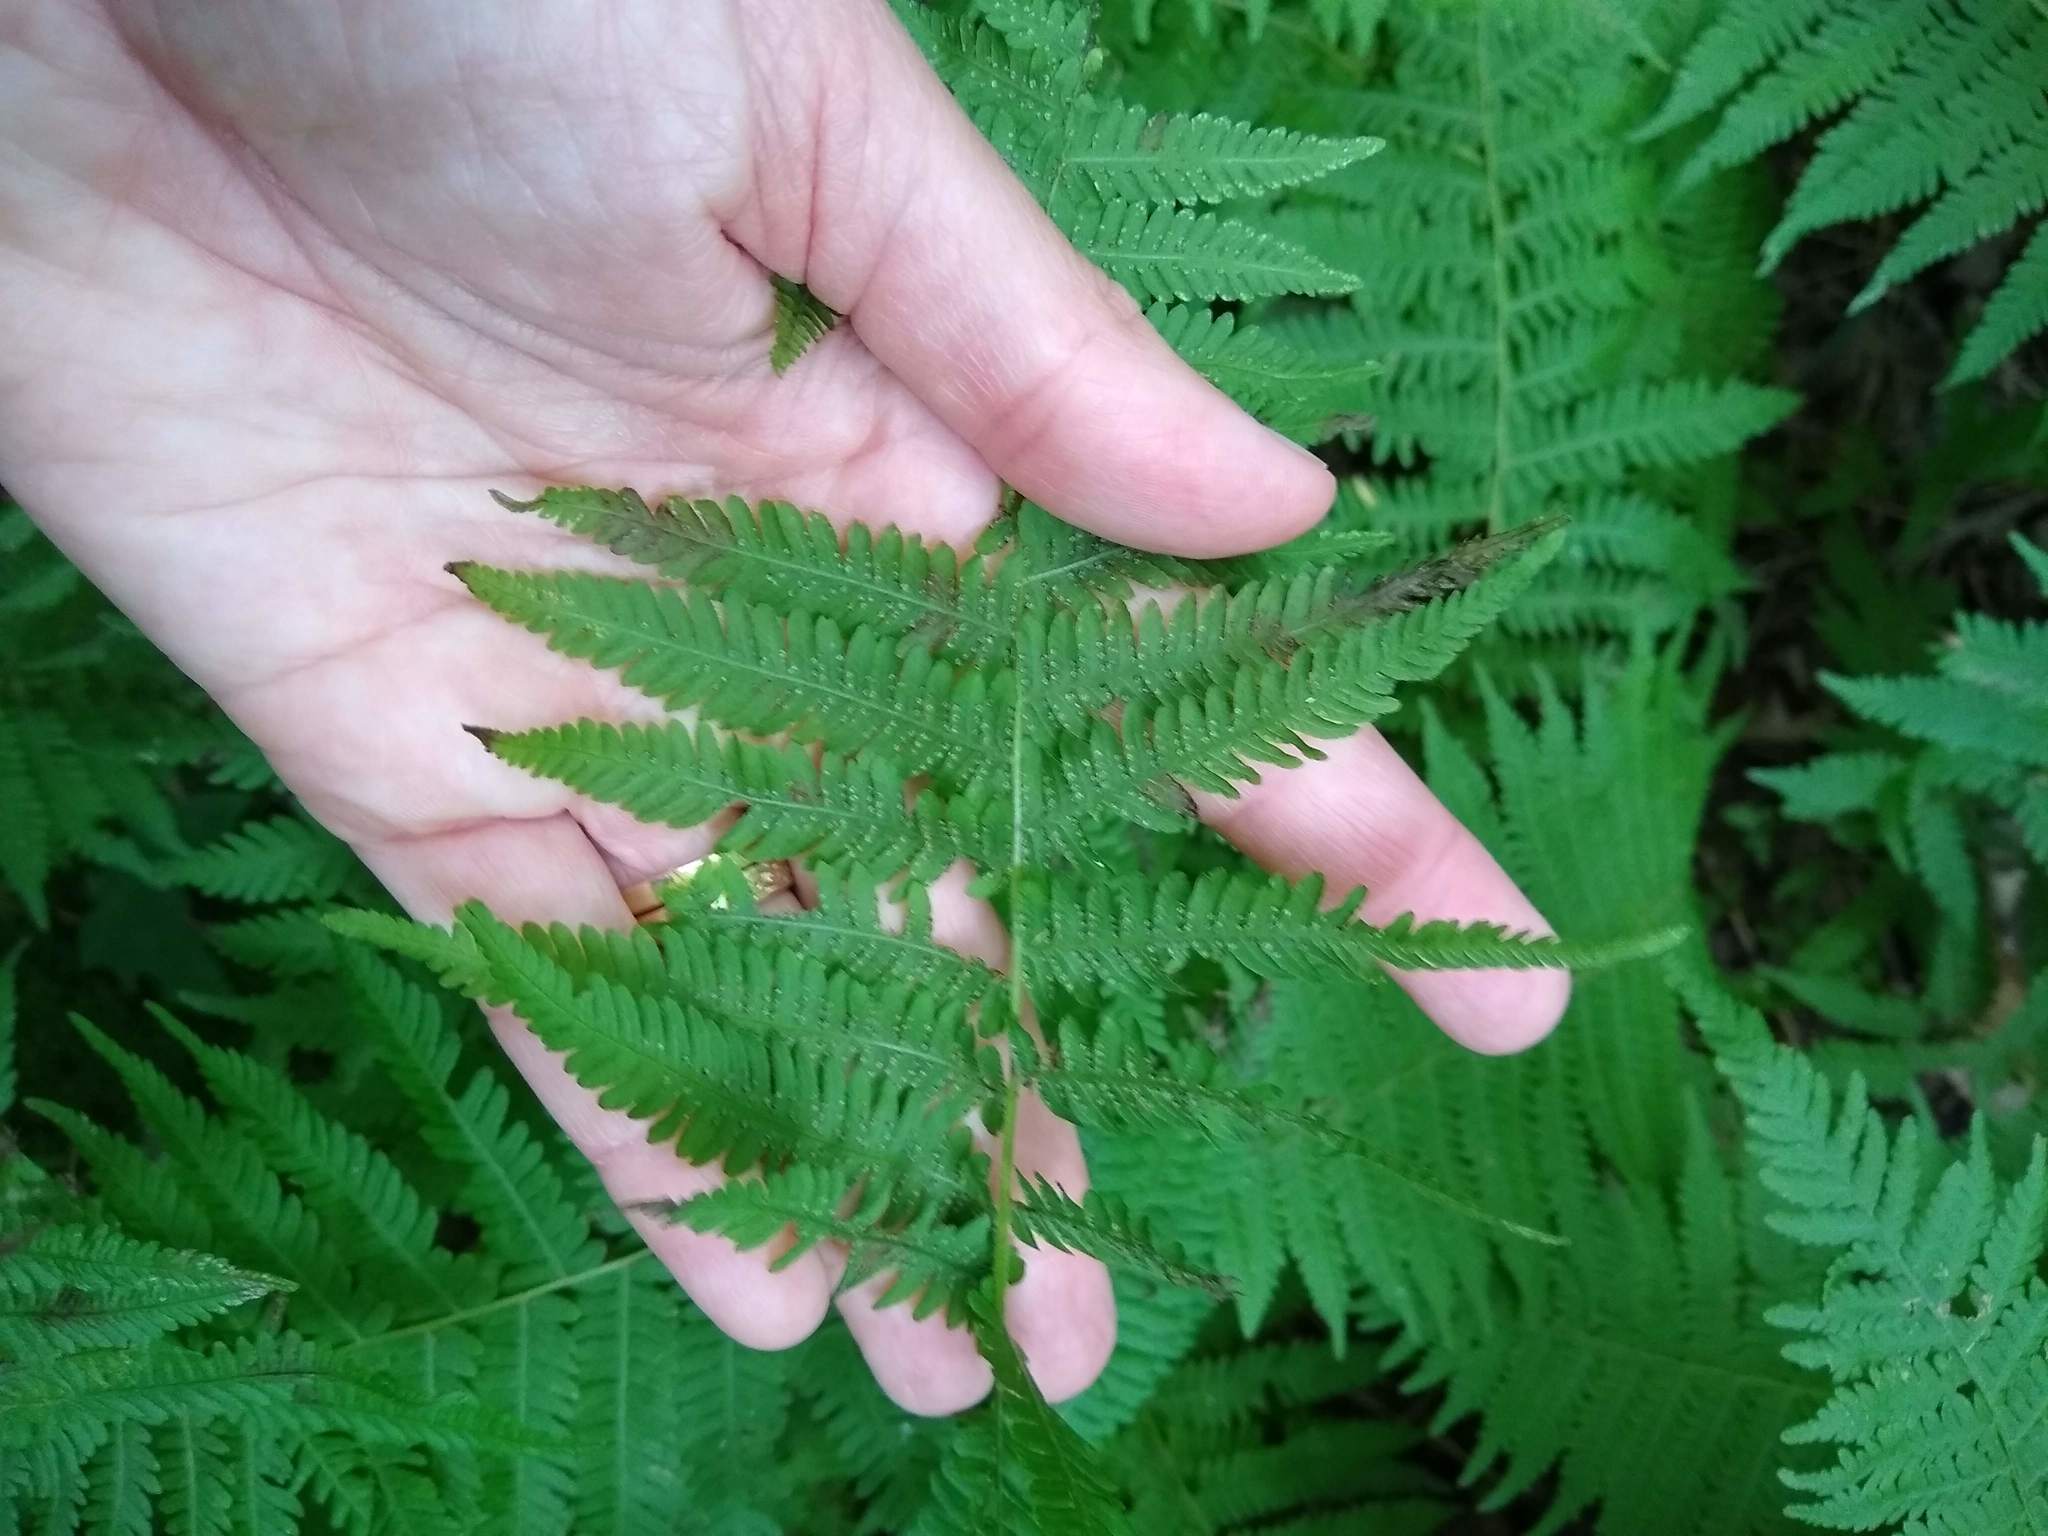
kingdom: Plantae
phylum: Tracheophyta
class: Polypodiopsida
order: Polypodiales
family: Thelypteridaceae
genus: Amauropelta
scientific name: Amauropelta noveboracensis
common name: New york fern
